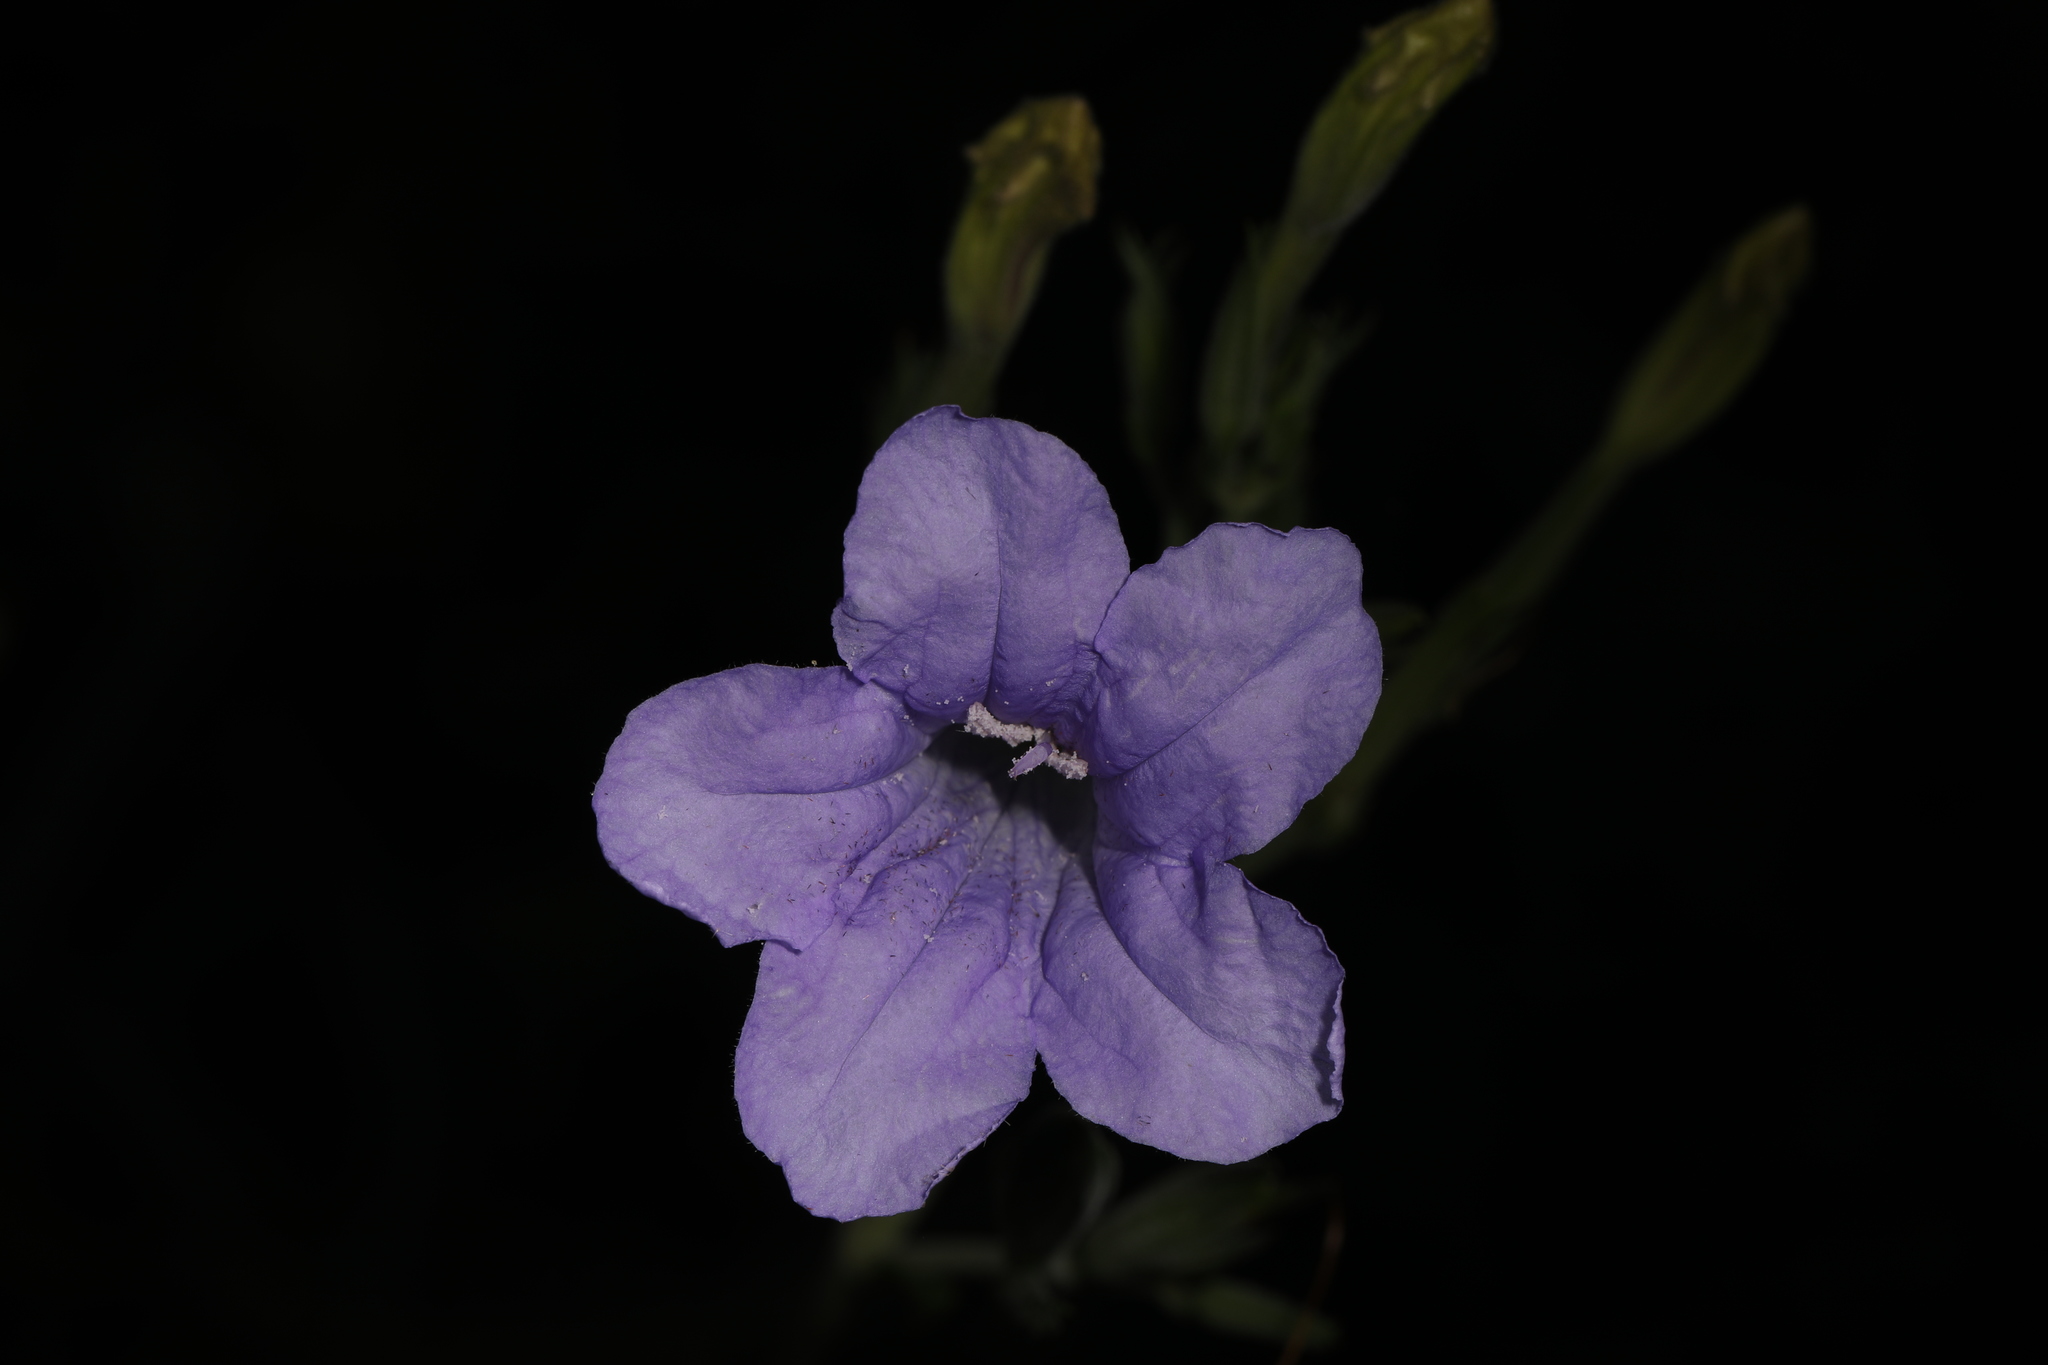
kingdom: Plantae
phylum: Tracheophyta
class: Magnoliopsida
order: Lamiales
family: Acanthaceae
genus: Ruellia
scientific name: Ruellia ciliatiflora
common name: Hairyflower wild petunia
